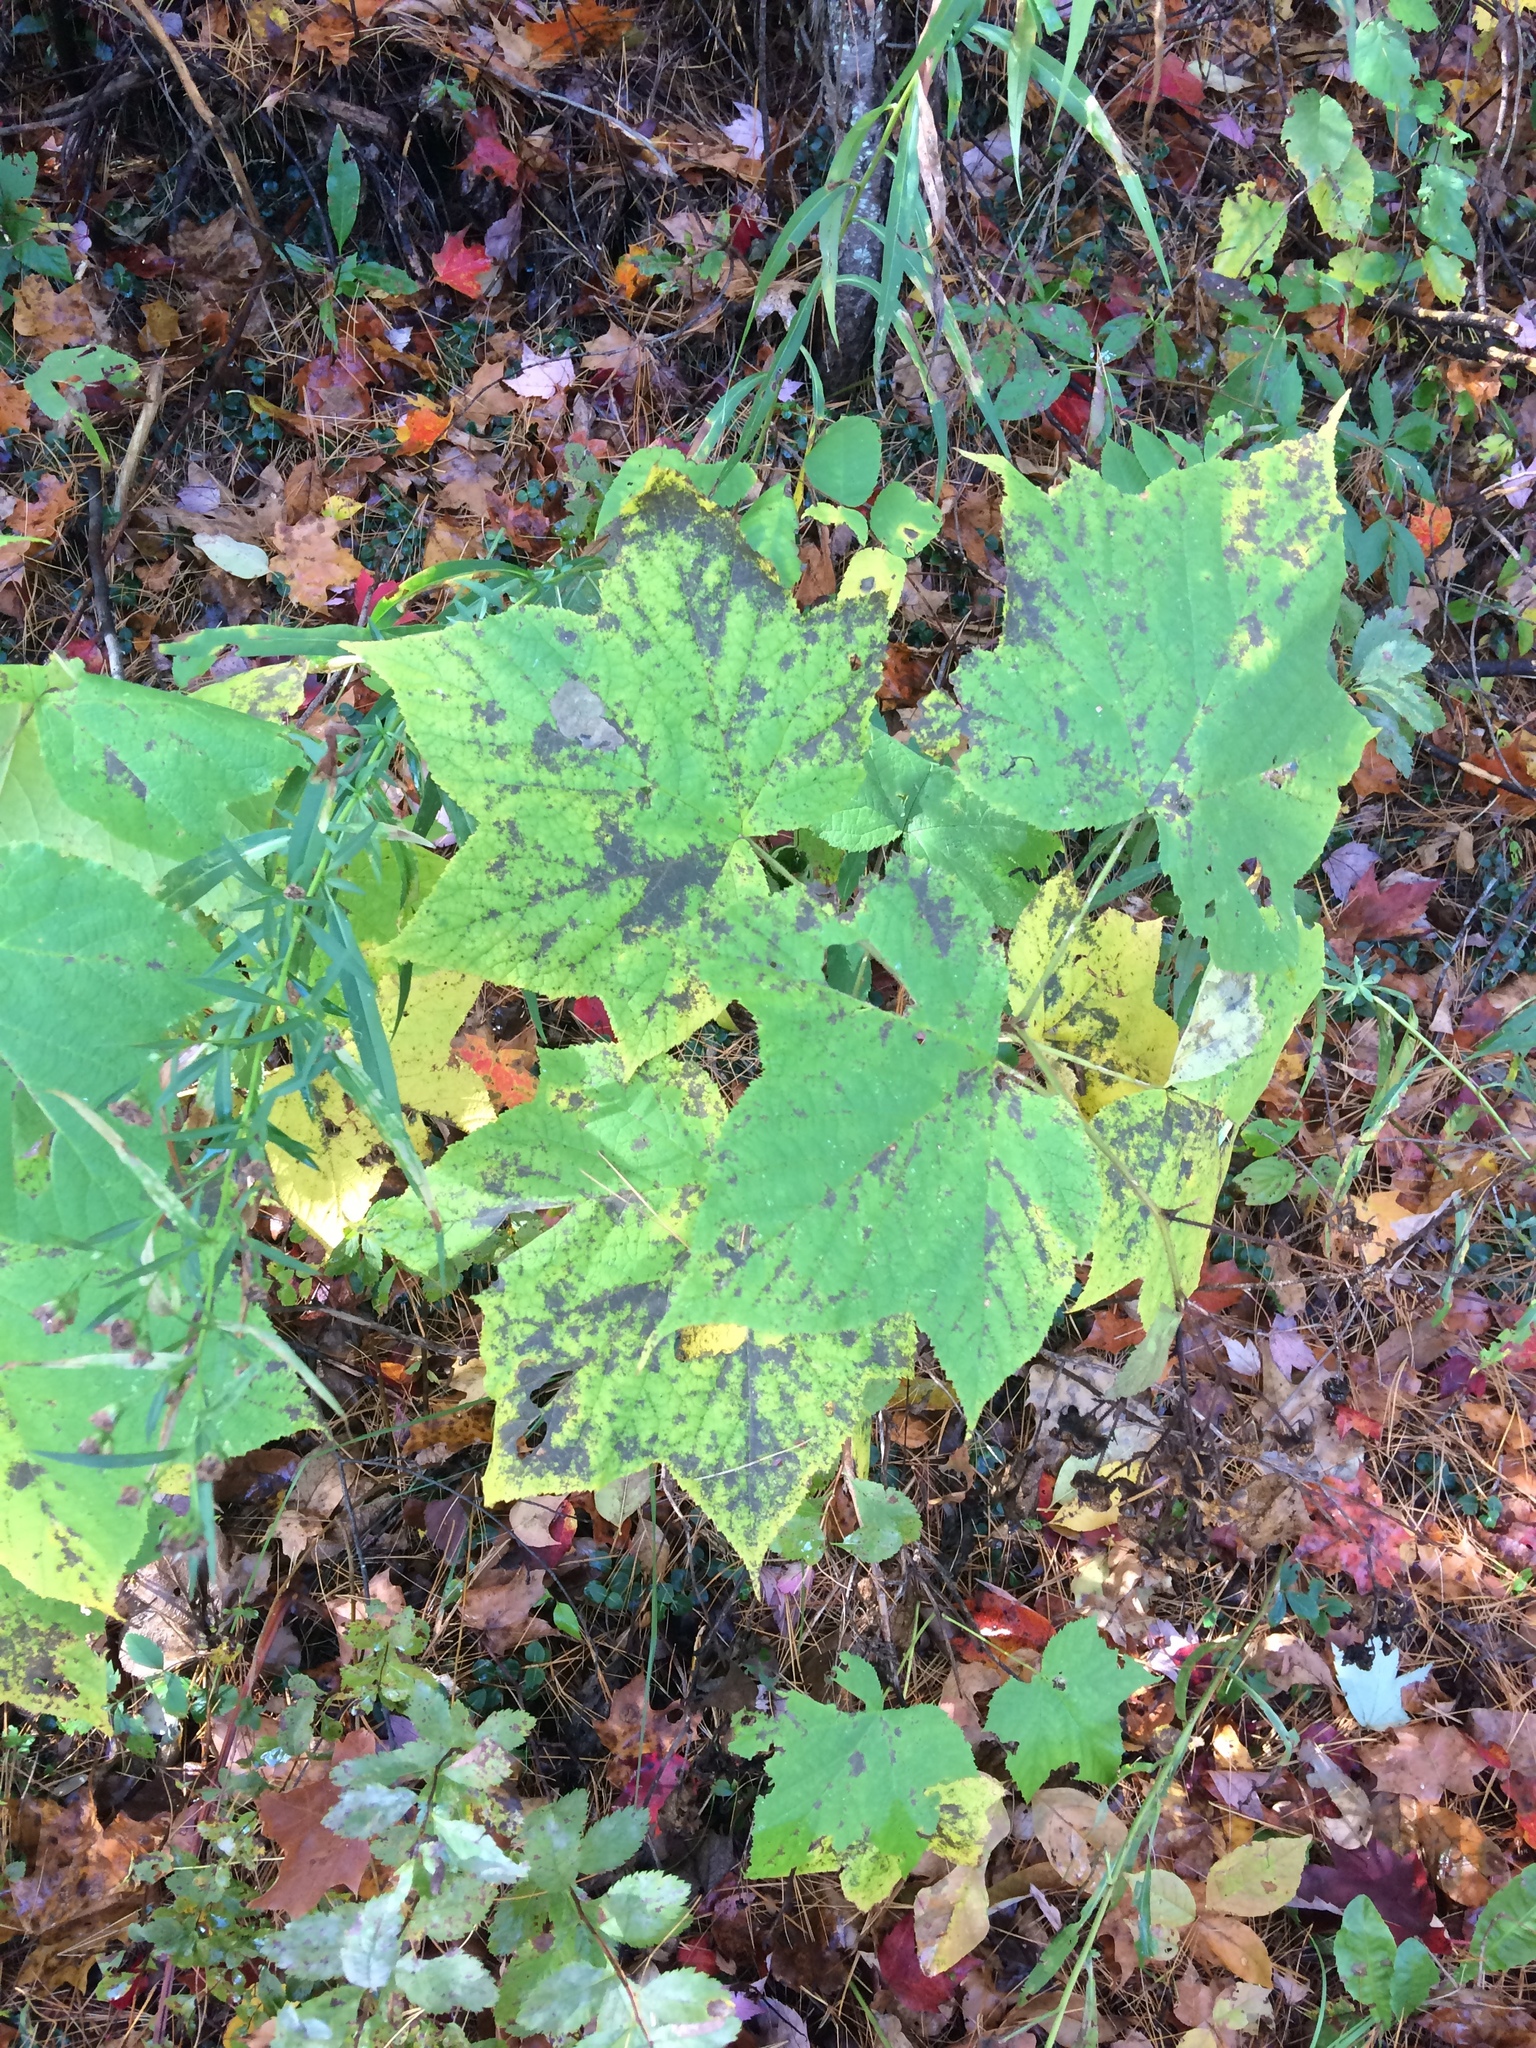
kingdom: Plantae
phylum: Tracheophyta
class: Magnoliopsida
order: Rosales
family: Rosaceae
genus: Rubus
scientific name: Rubus odoratus
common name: Purple-flowered raspberry
